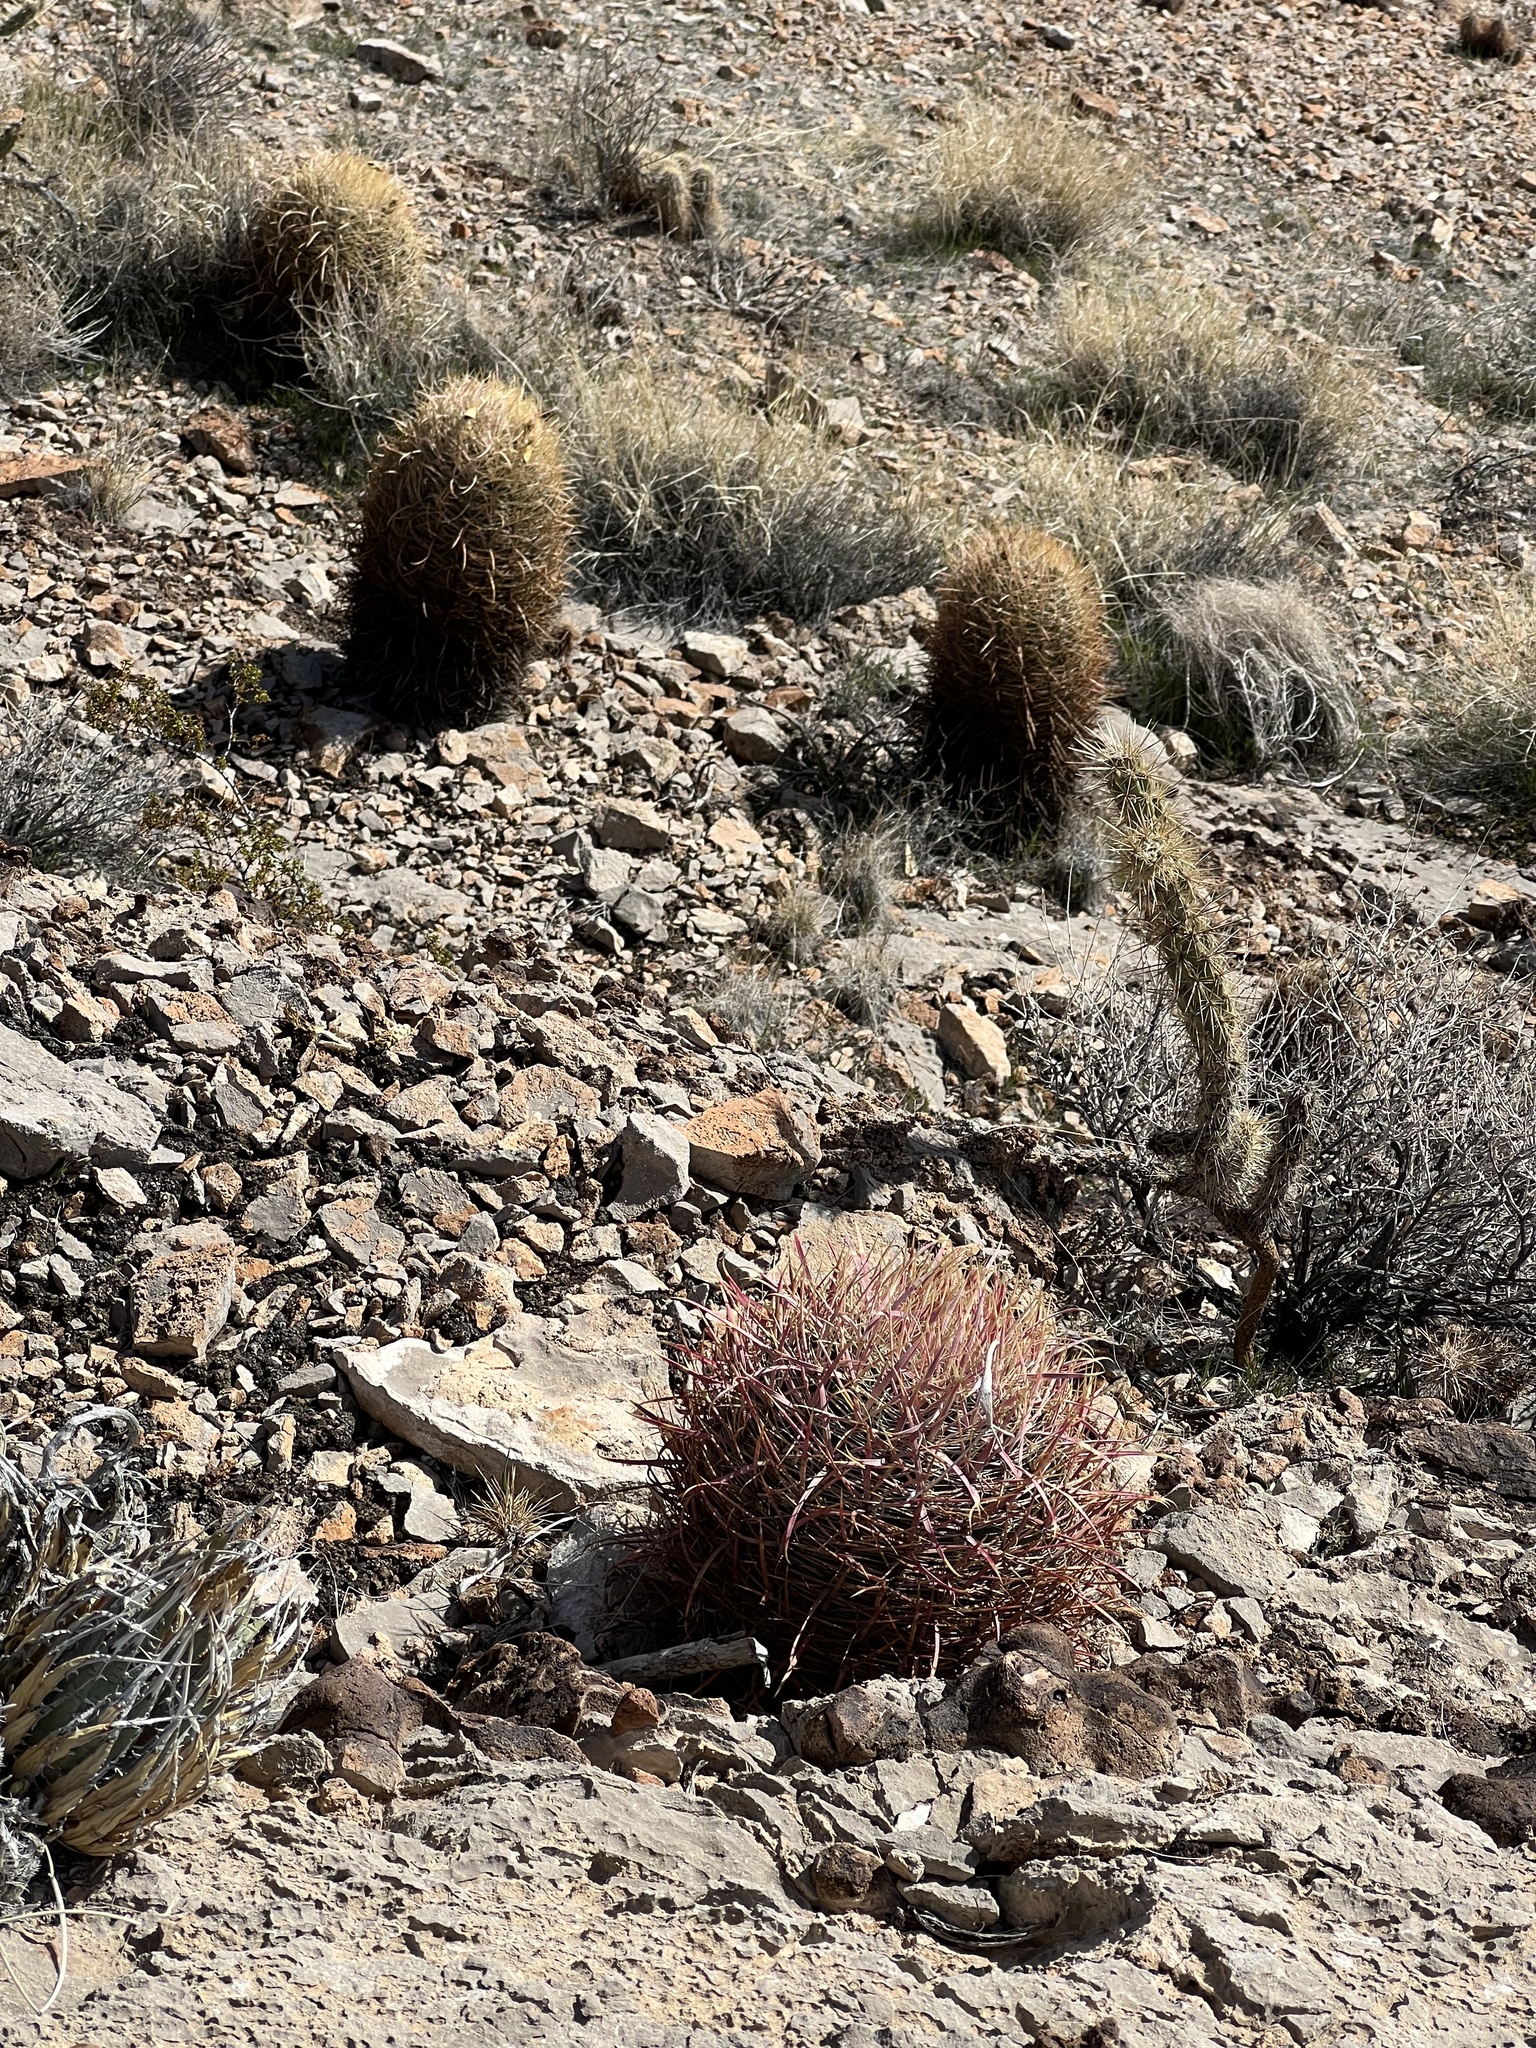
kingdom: Plantae
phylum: Tracheophyta
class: Magnoliopsida
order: Caryophyllales
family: Cactaceae
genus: Ferocactus
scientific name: Ferocactus cylindraceus
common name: California barrel cactus
